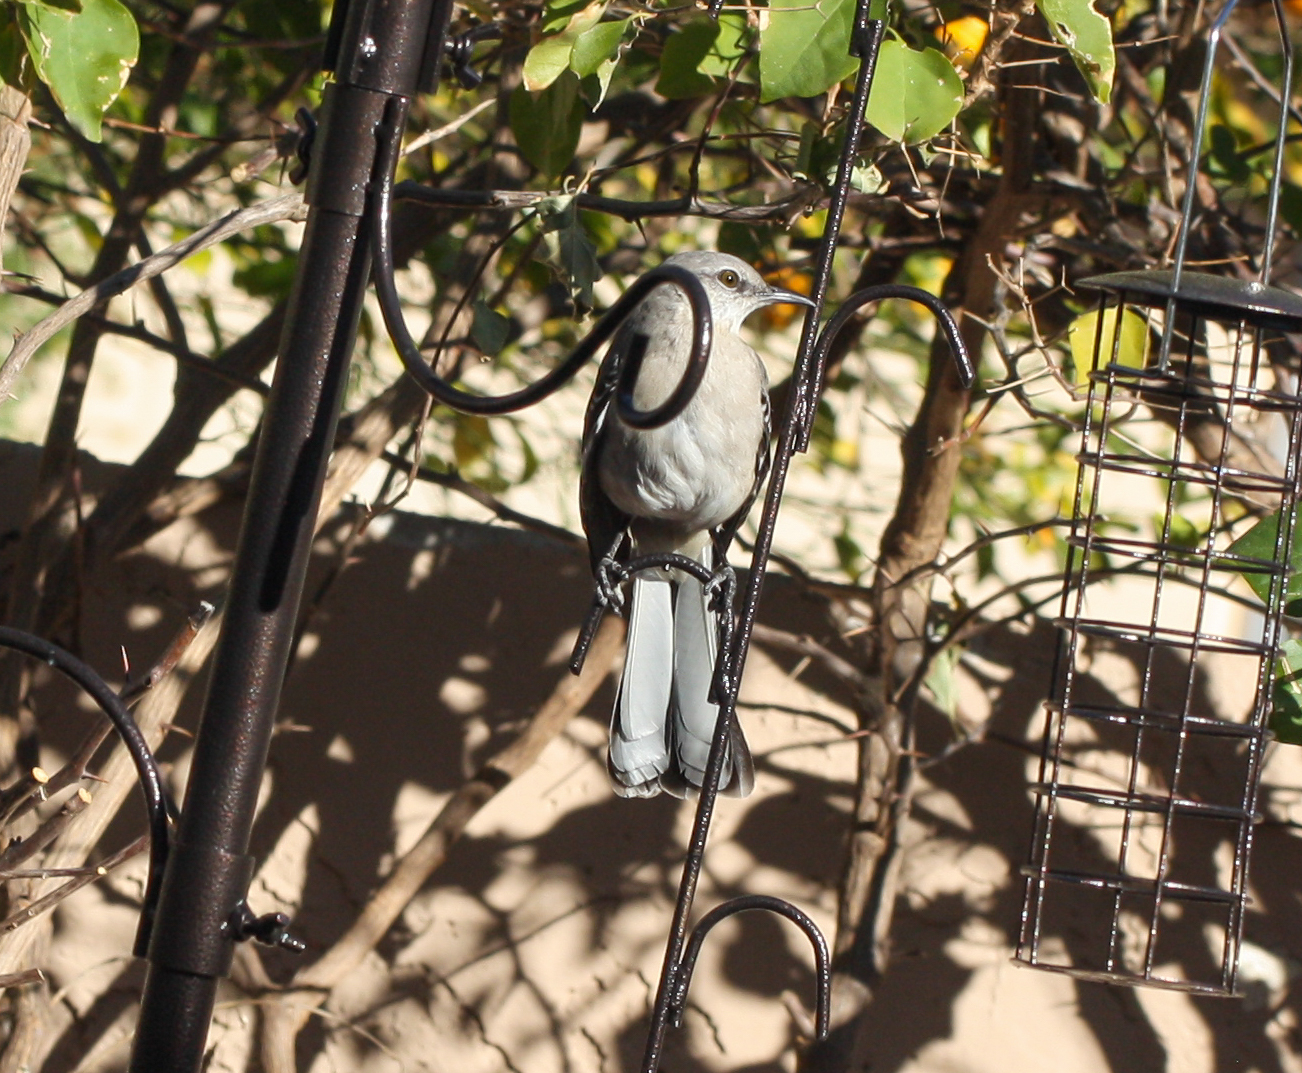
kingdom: Animalia
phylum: Chordata
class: Aves
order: Passeriformes
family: Mimidae
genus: Mimus
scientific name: Mimus polyglottos
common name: Northern mockingbird
